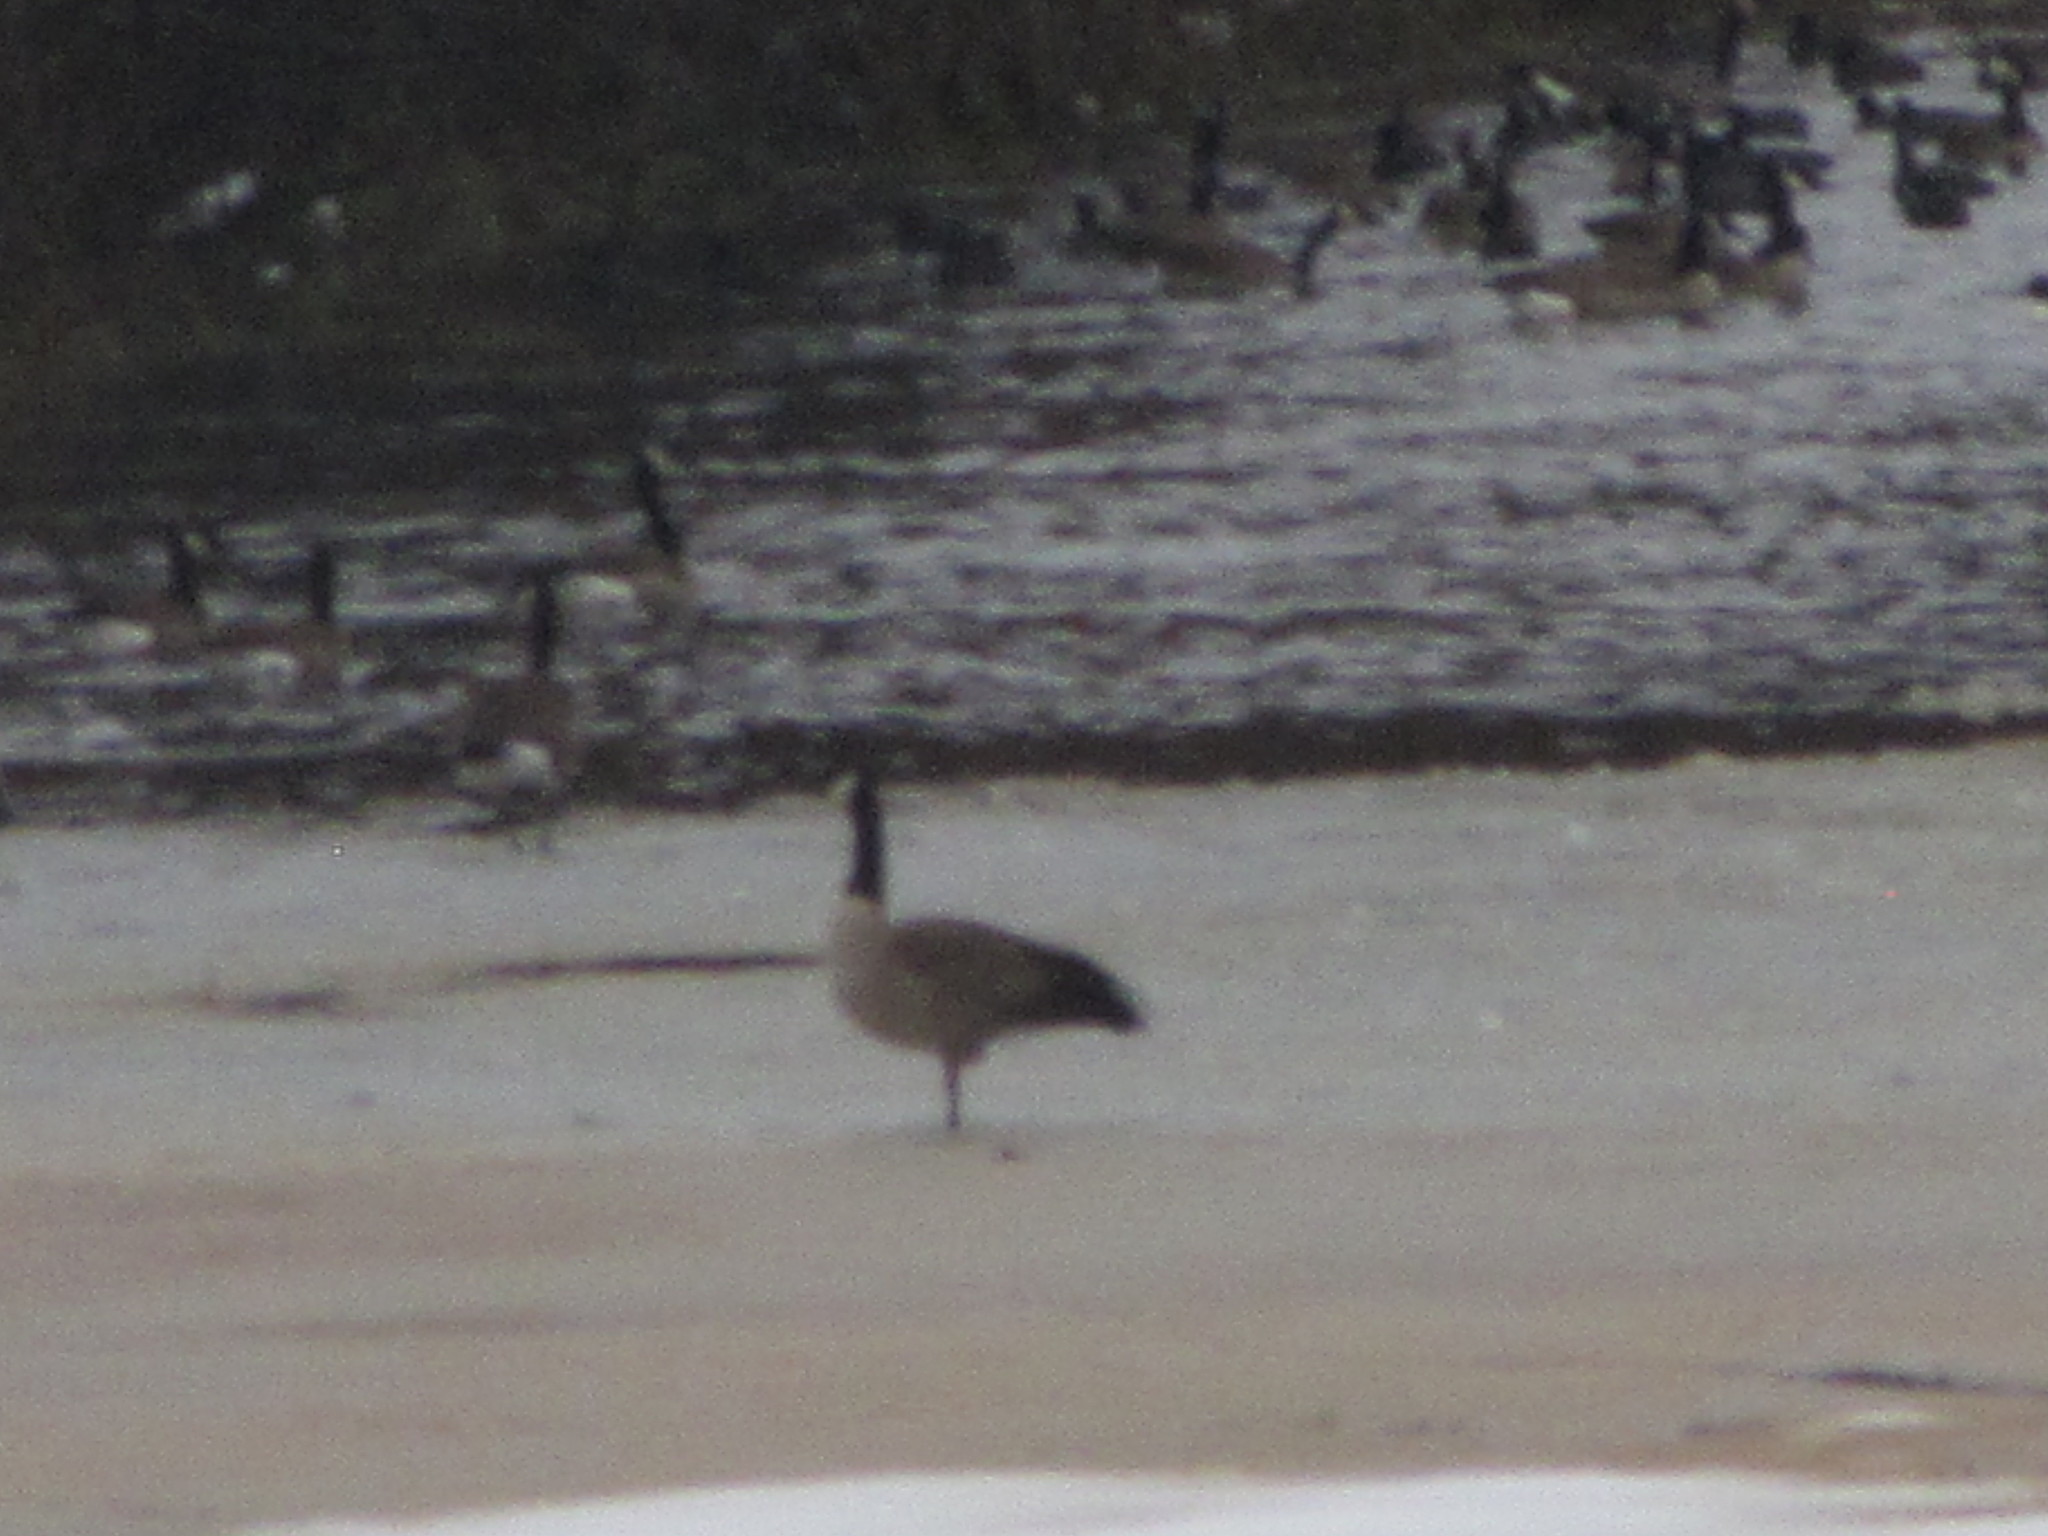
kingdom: Animalia
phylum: Chordata
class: Aves
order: Anseriformes
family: Anatidae
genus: Branta
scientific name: Branta canadensis
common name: Canada goose
